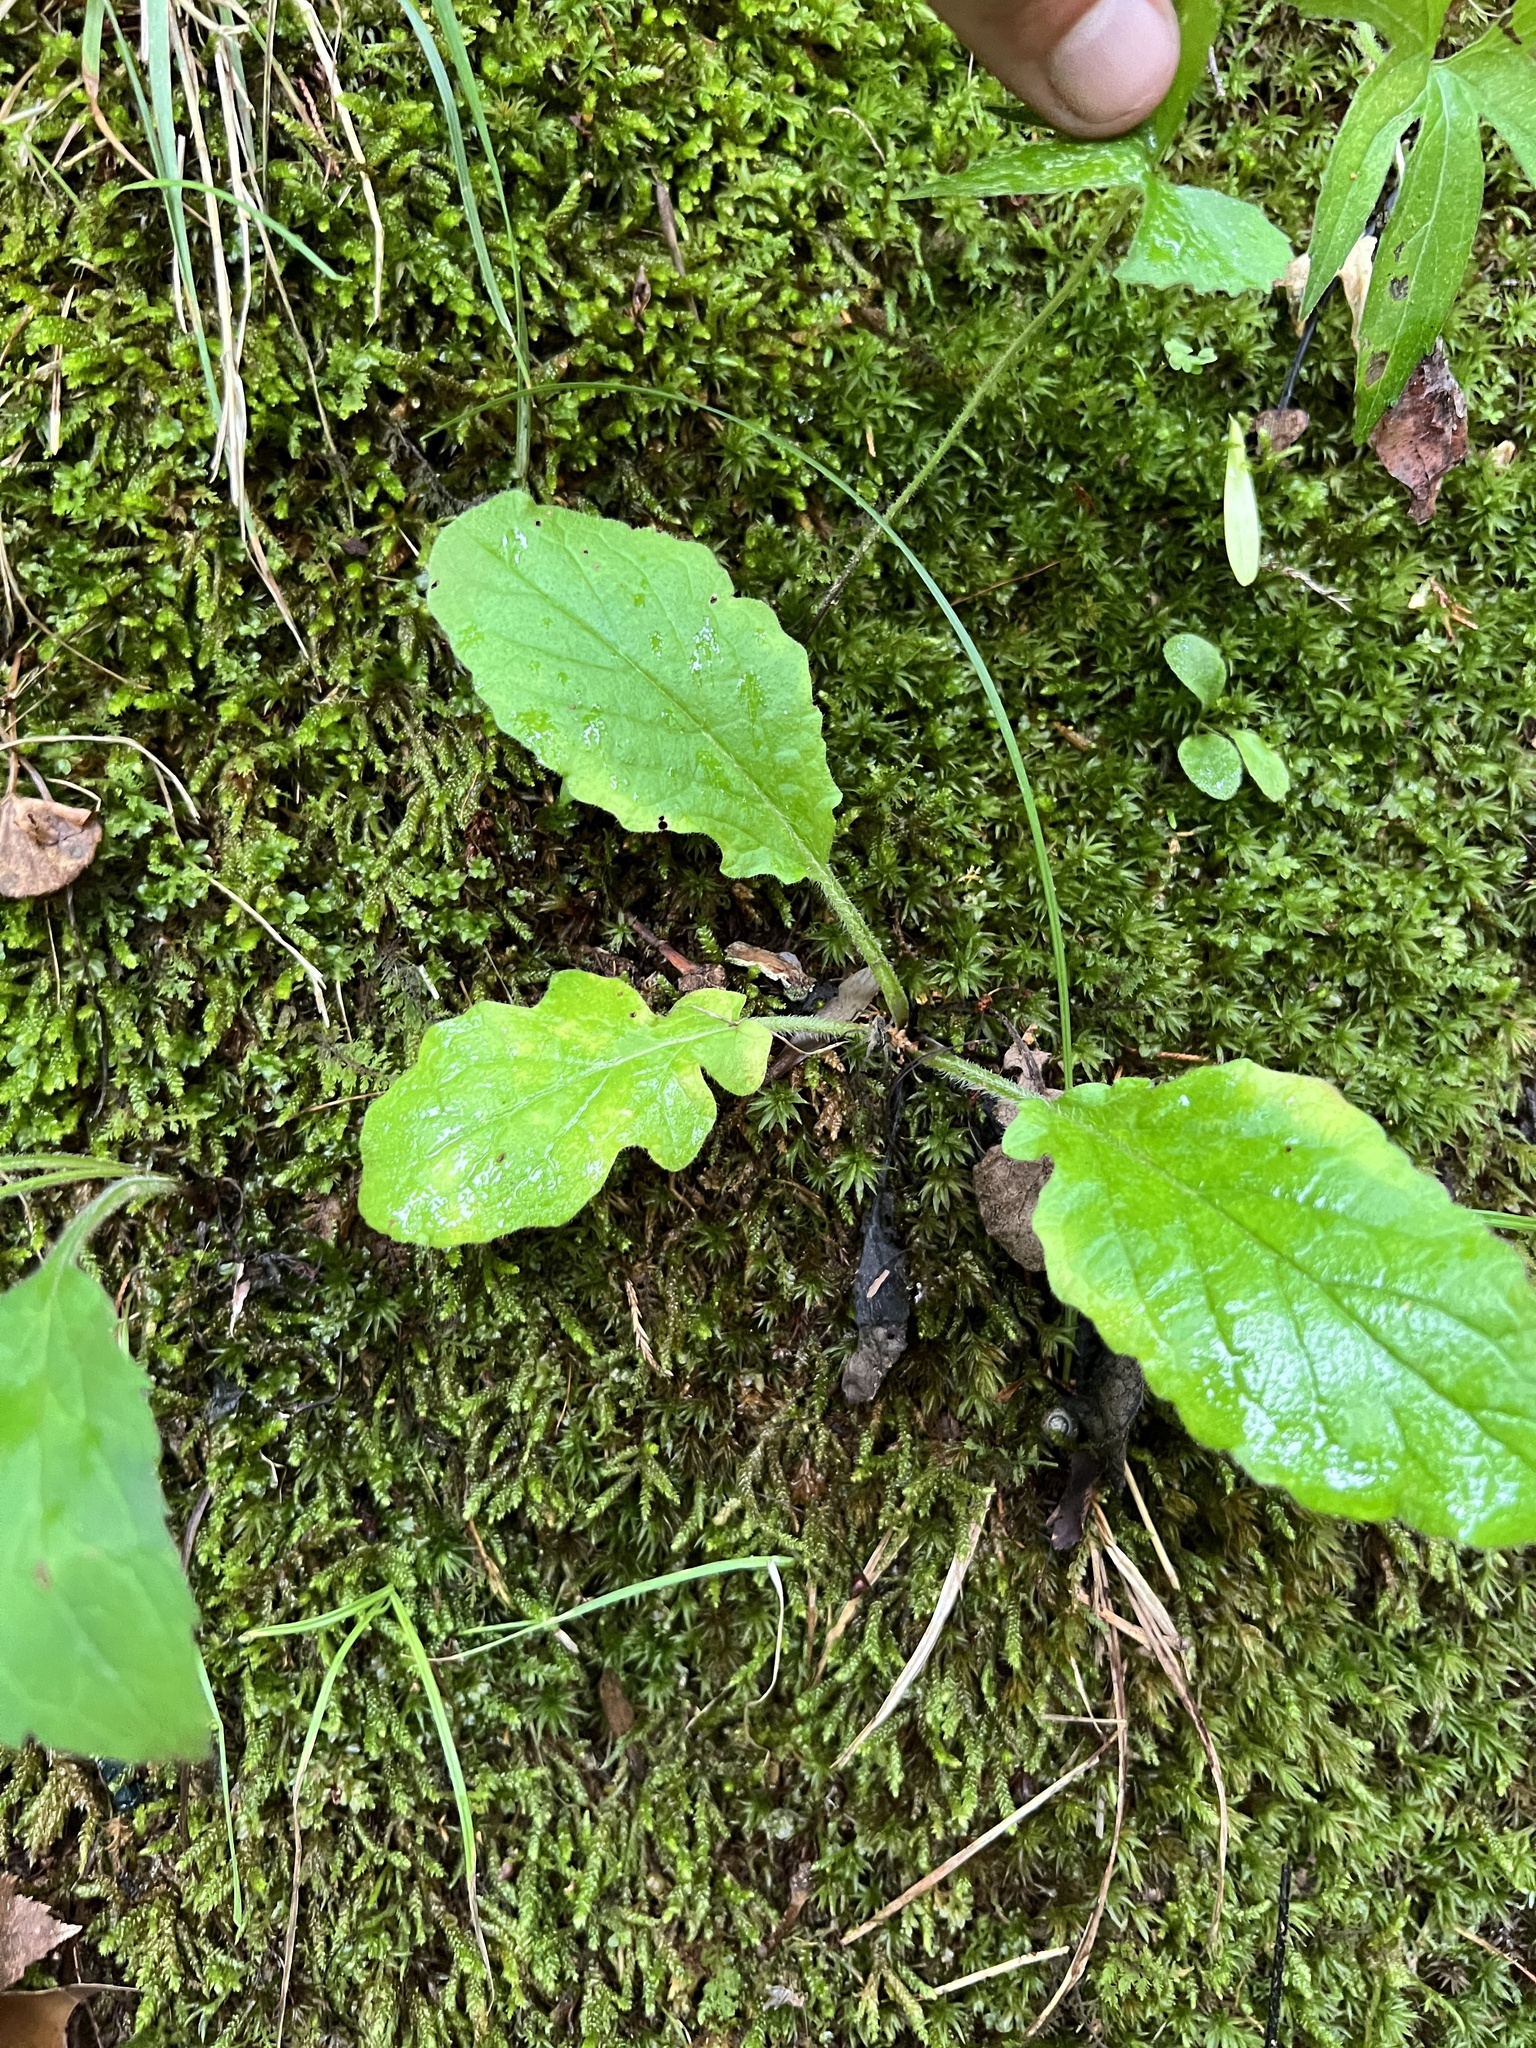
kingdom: Plantae
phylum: Tracheophyta
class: Magnoliopsida
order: Lamiales
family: Lamiaceae
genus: Salvia
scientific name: Salvia lyrata
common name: Cancerweed
